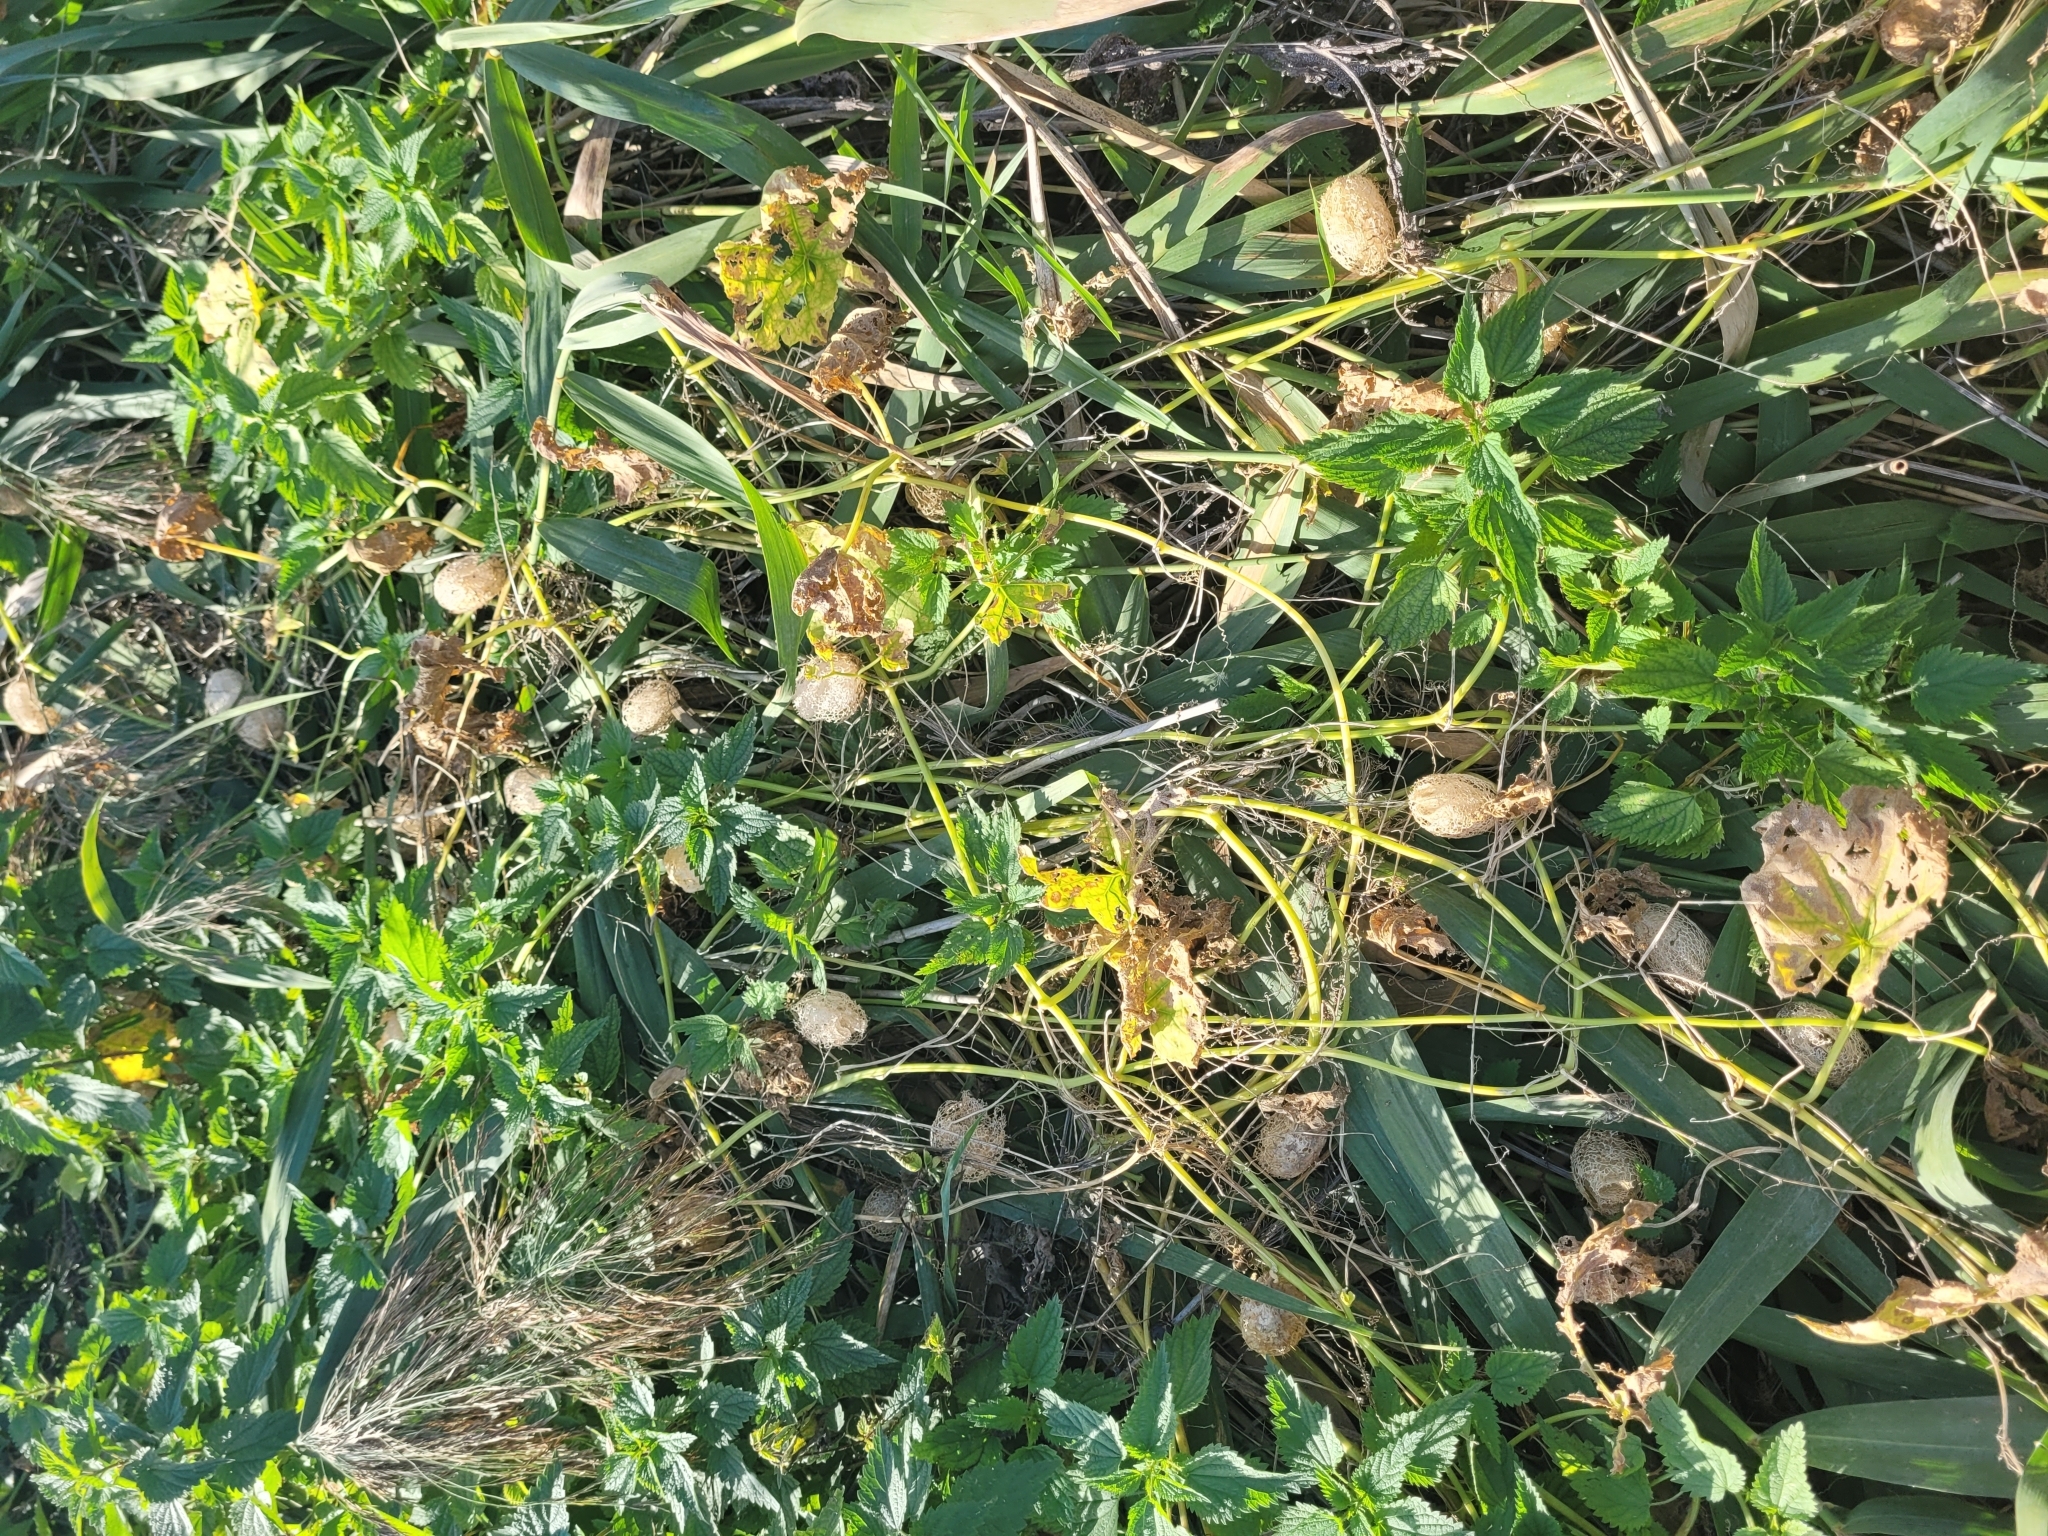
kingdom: Plantae
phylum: Tracheophyta
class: Magnoliopsida
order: Cucurbitales
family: Cucurbitaceae
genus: Echinocystis
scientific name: Echinocystis lobata
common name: Wild cucumber
